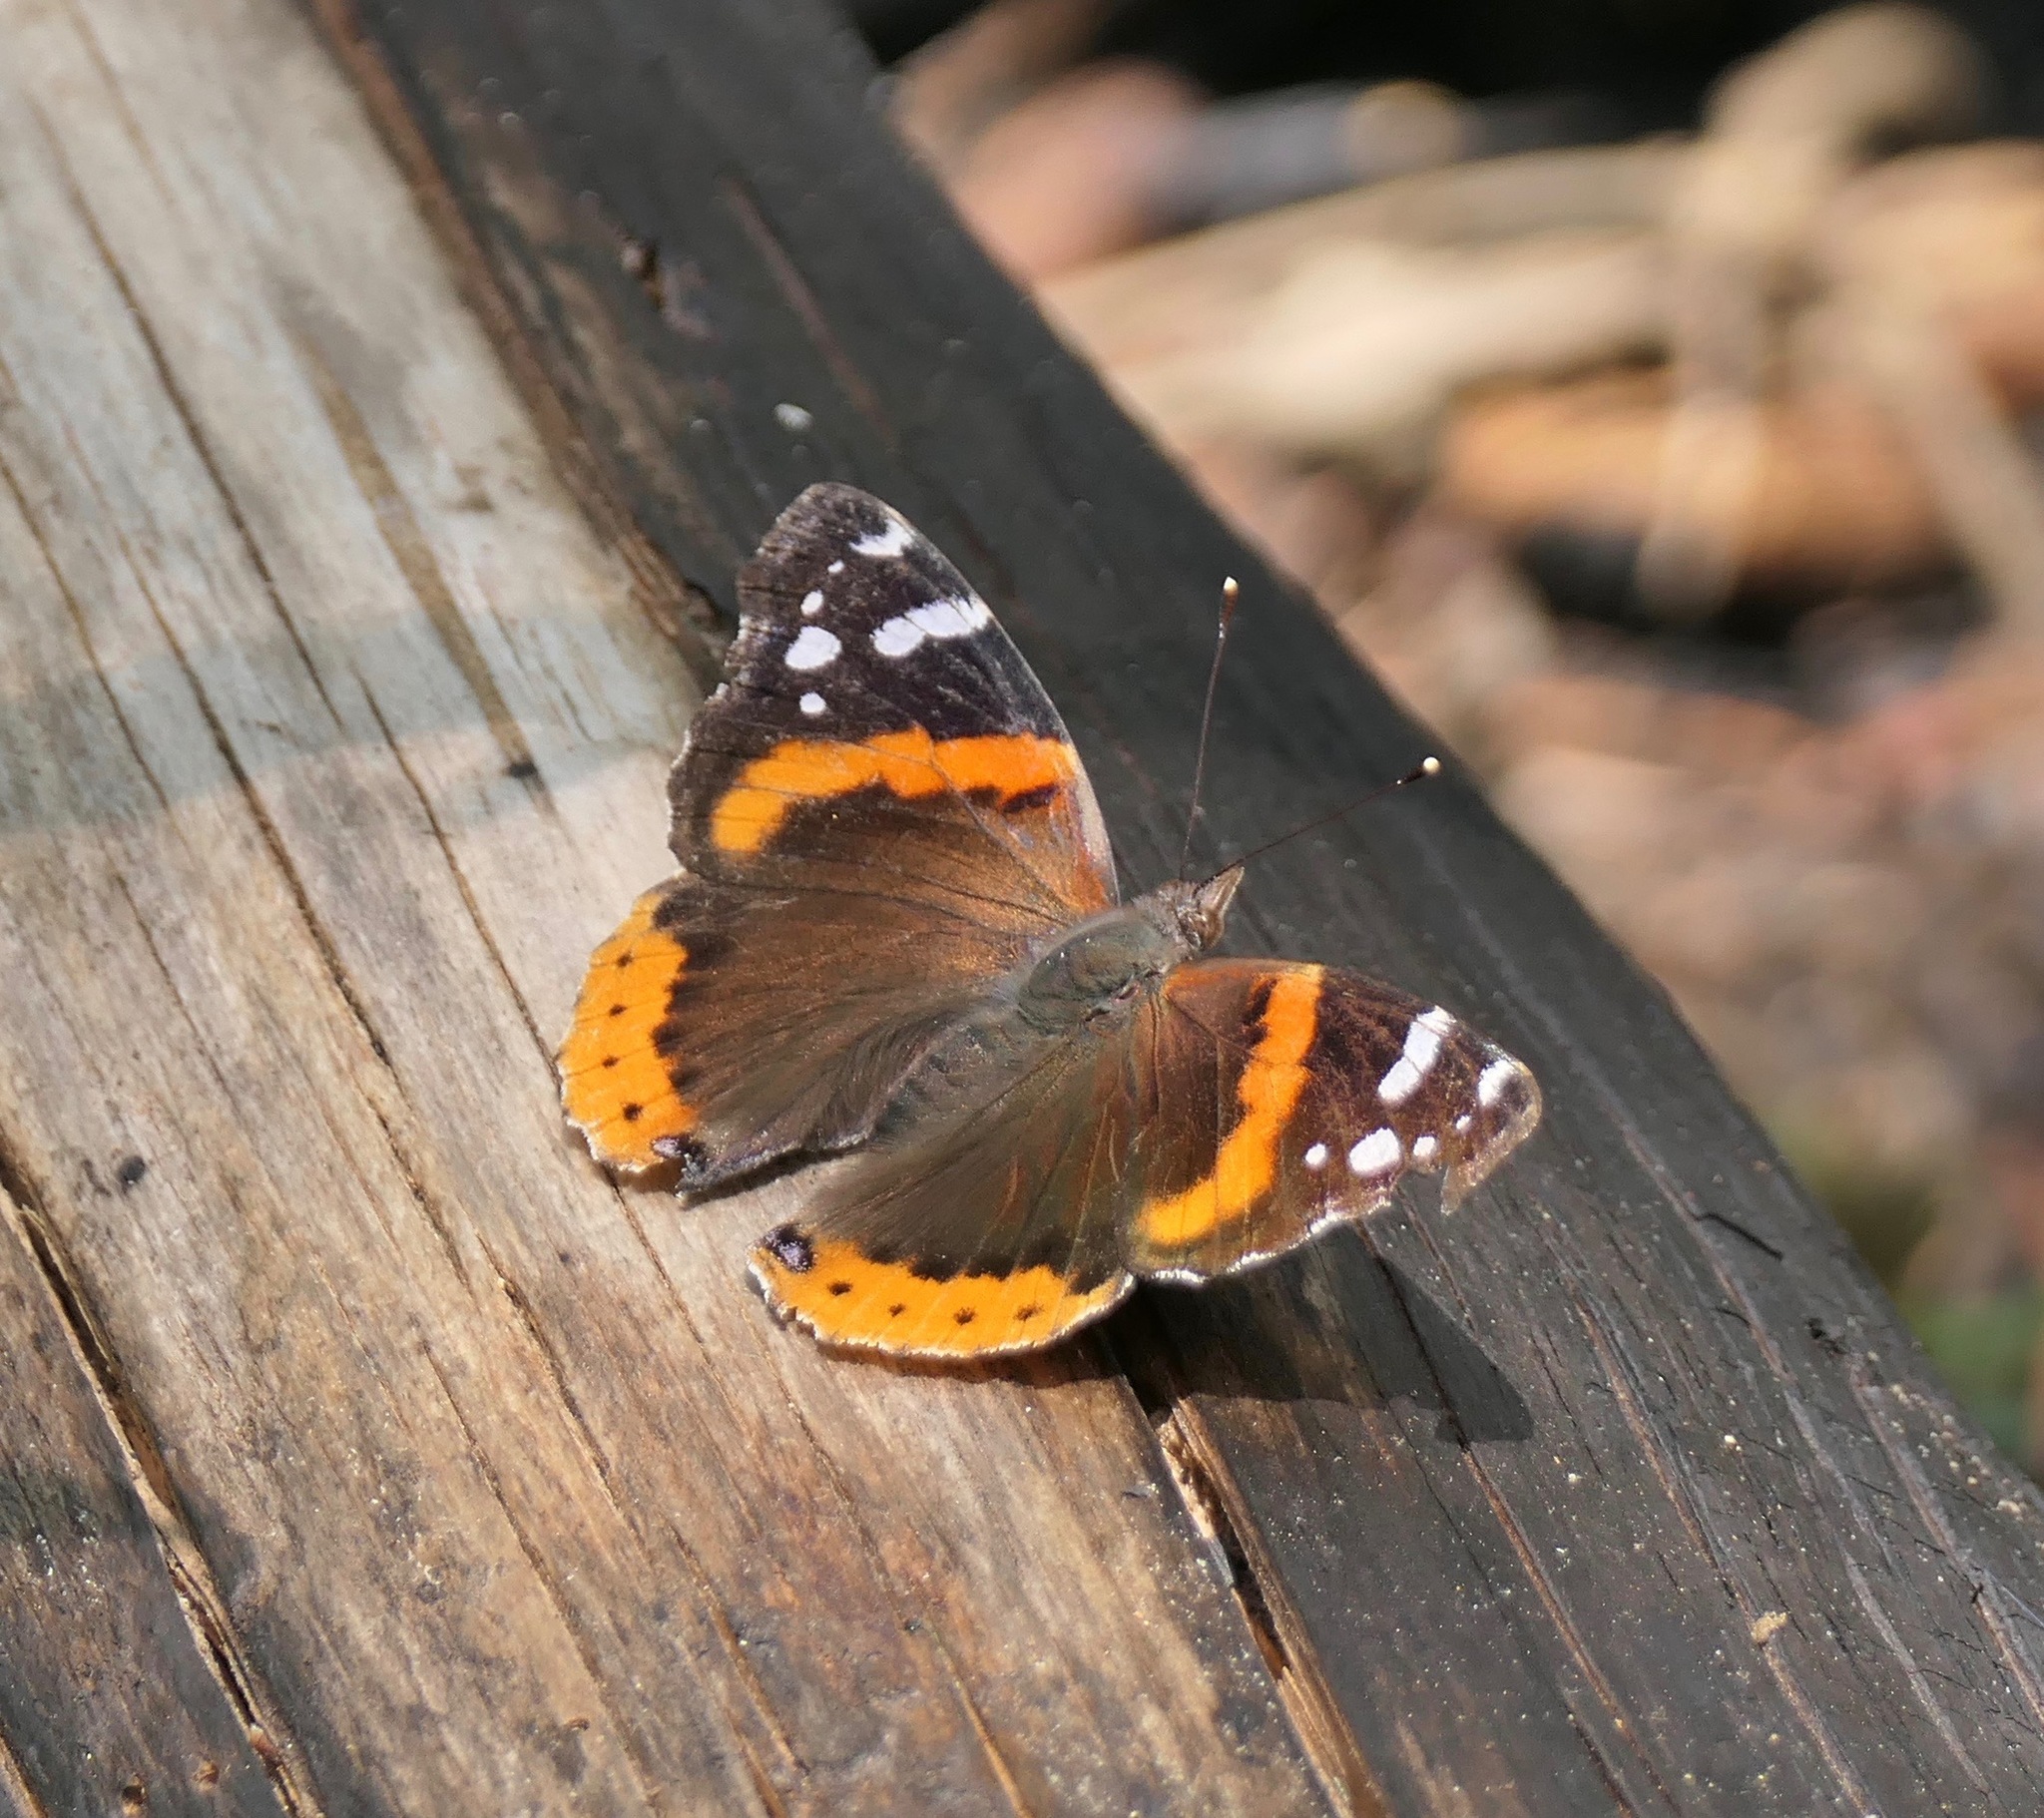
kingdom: Animalia
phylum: Arthropoda
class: Insecta
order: Lepidoptera
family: Nymphalidae
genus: Vanessa
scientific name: Vanessa atalanta
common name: Red admiral
